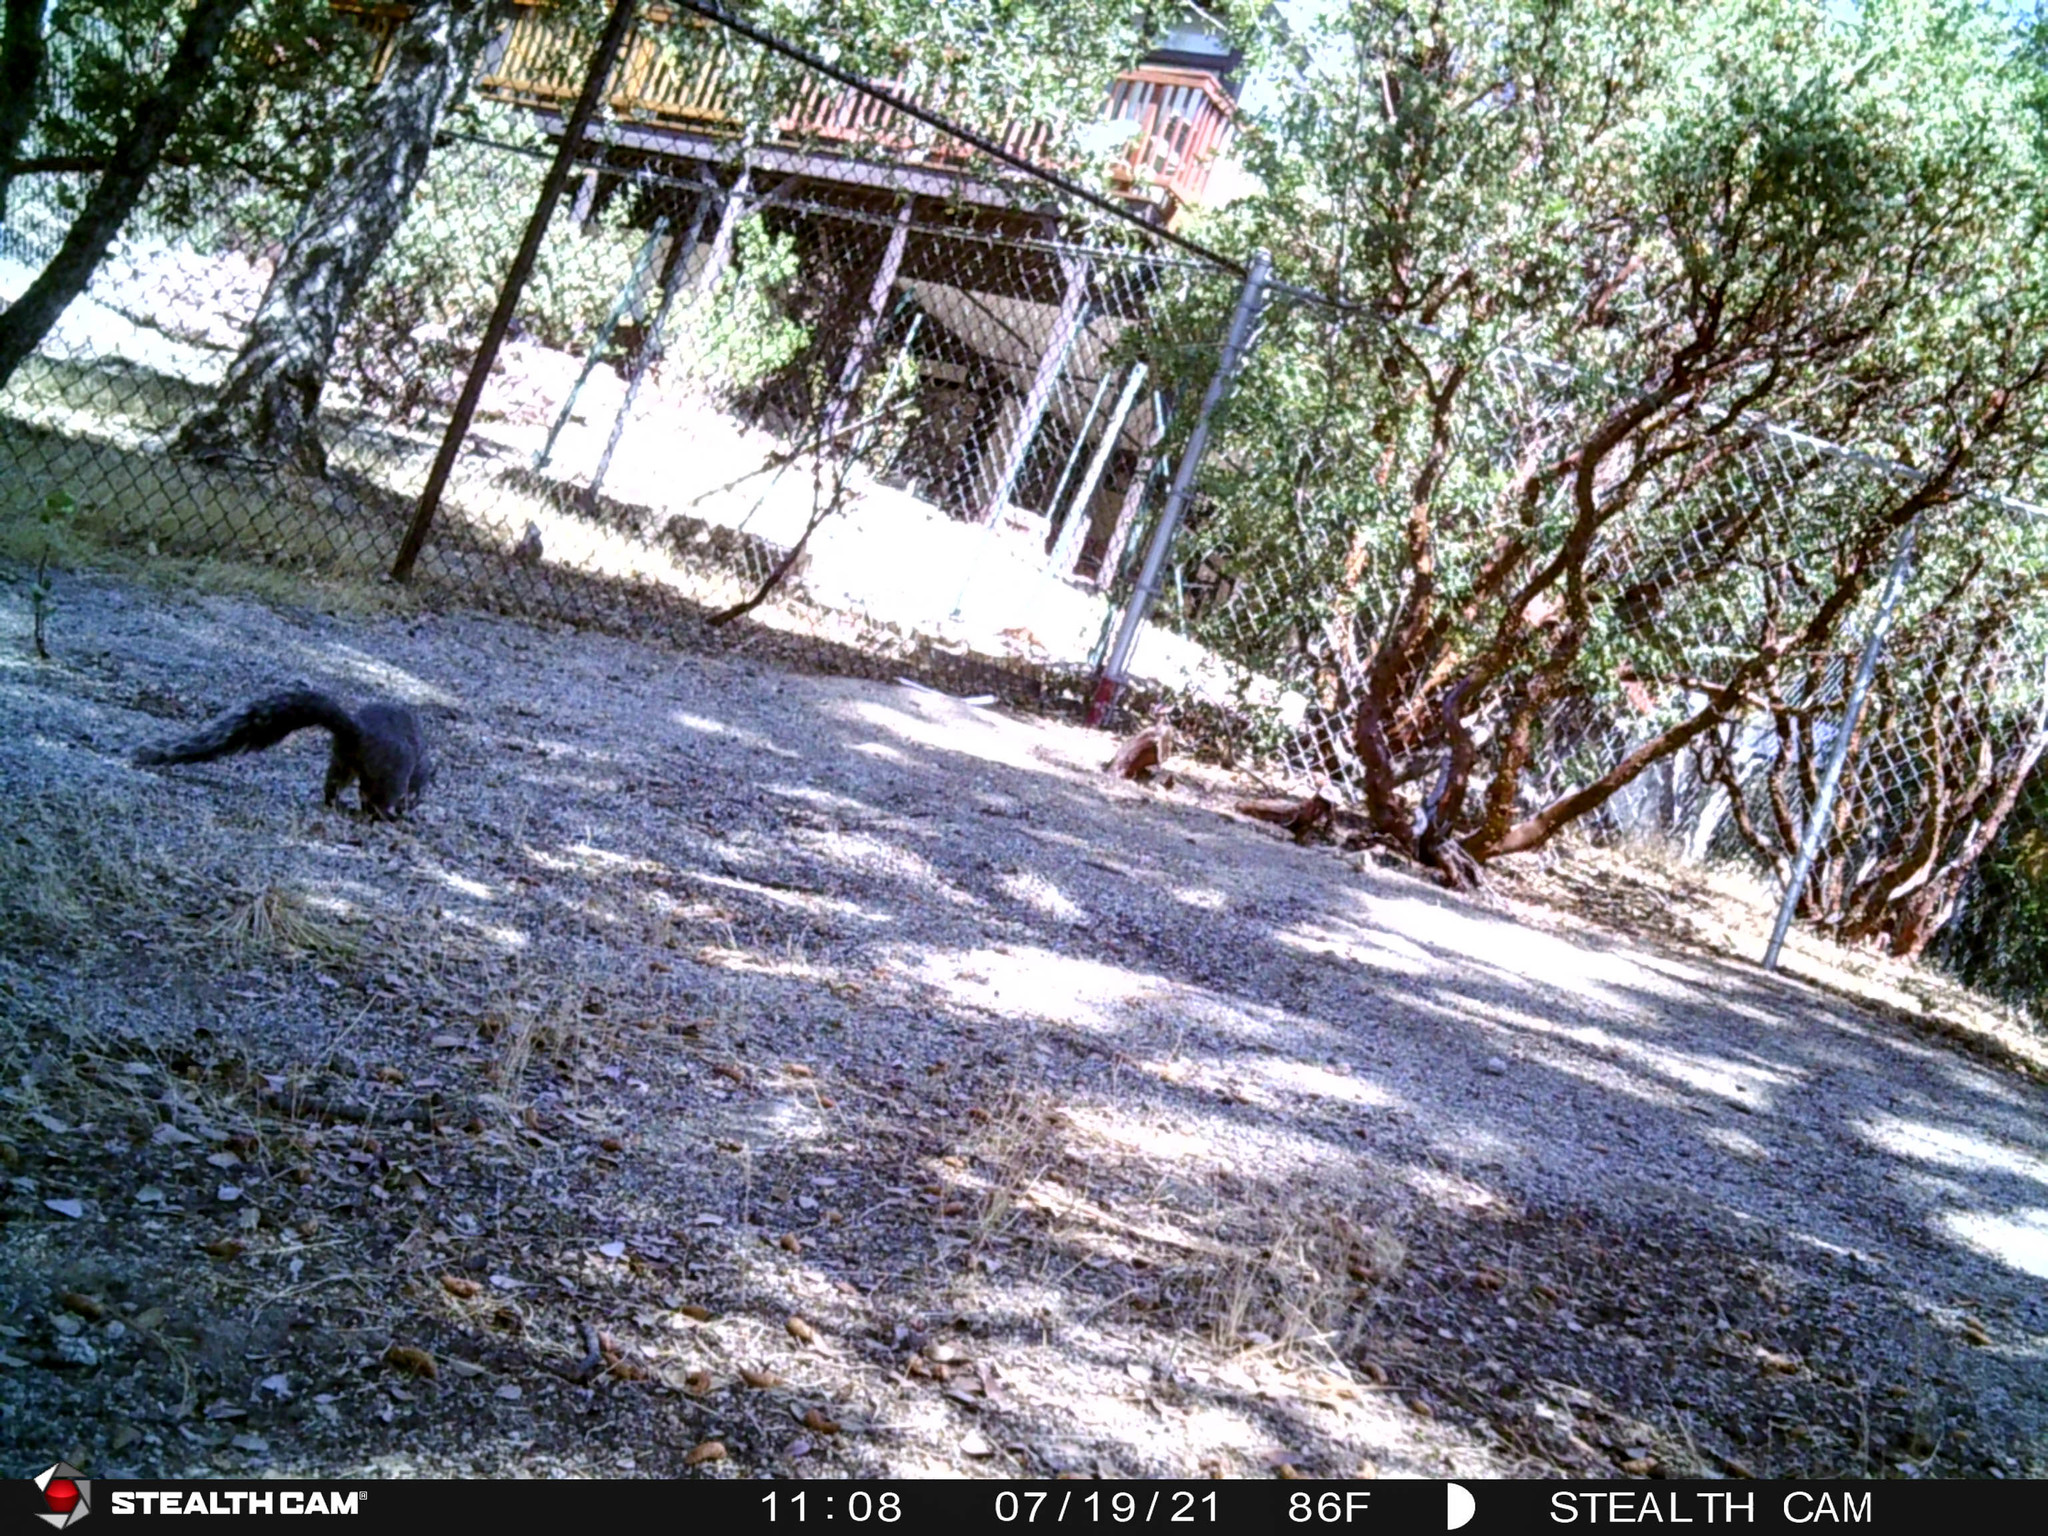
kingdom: Animalia
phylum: Chordata
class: Mammalia
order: Rodentia
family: Sciuridae
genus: Sciurus
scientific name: Sciurus griseus
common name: Western gray squirrel
